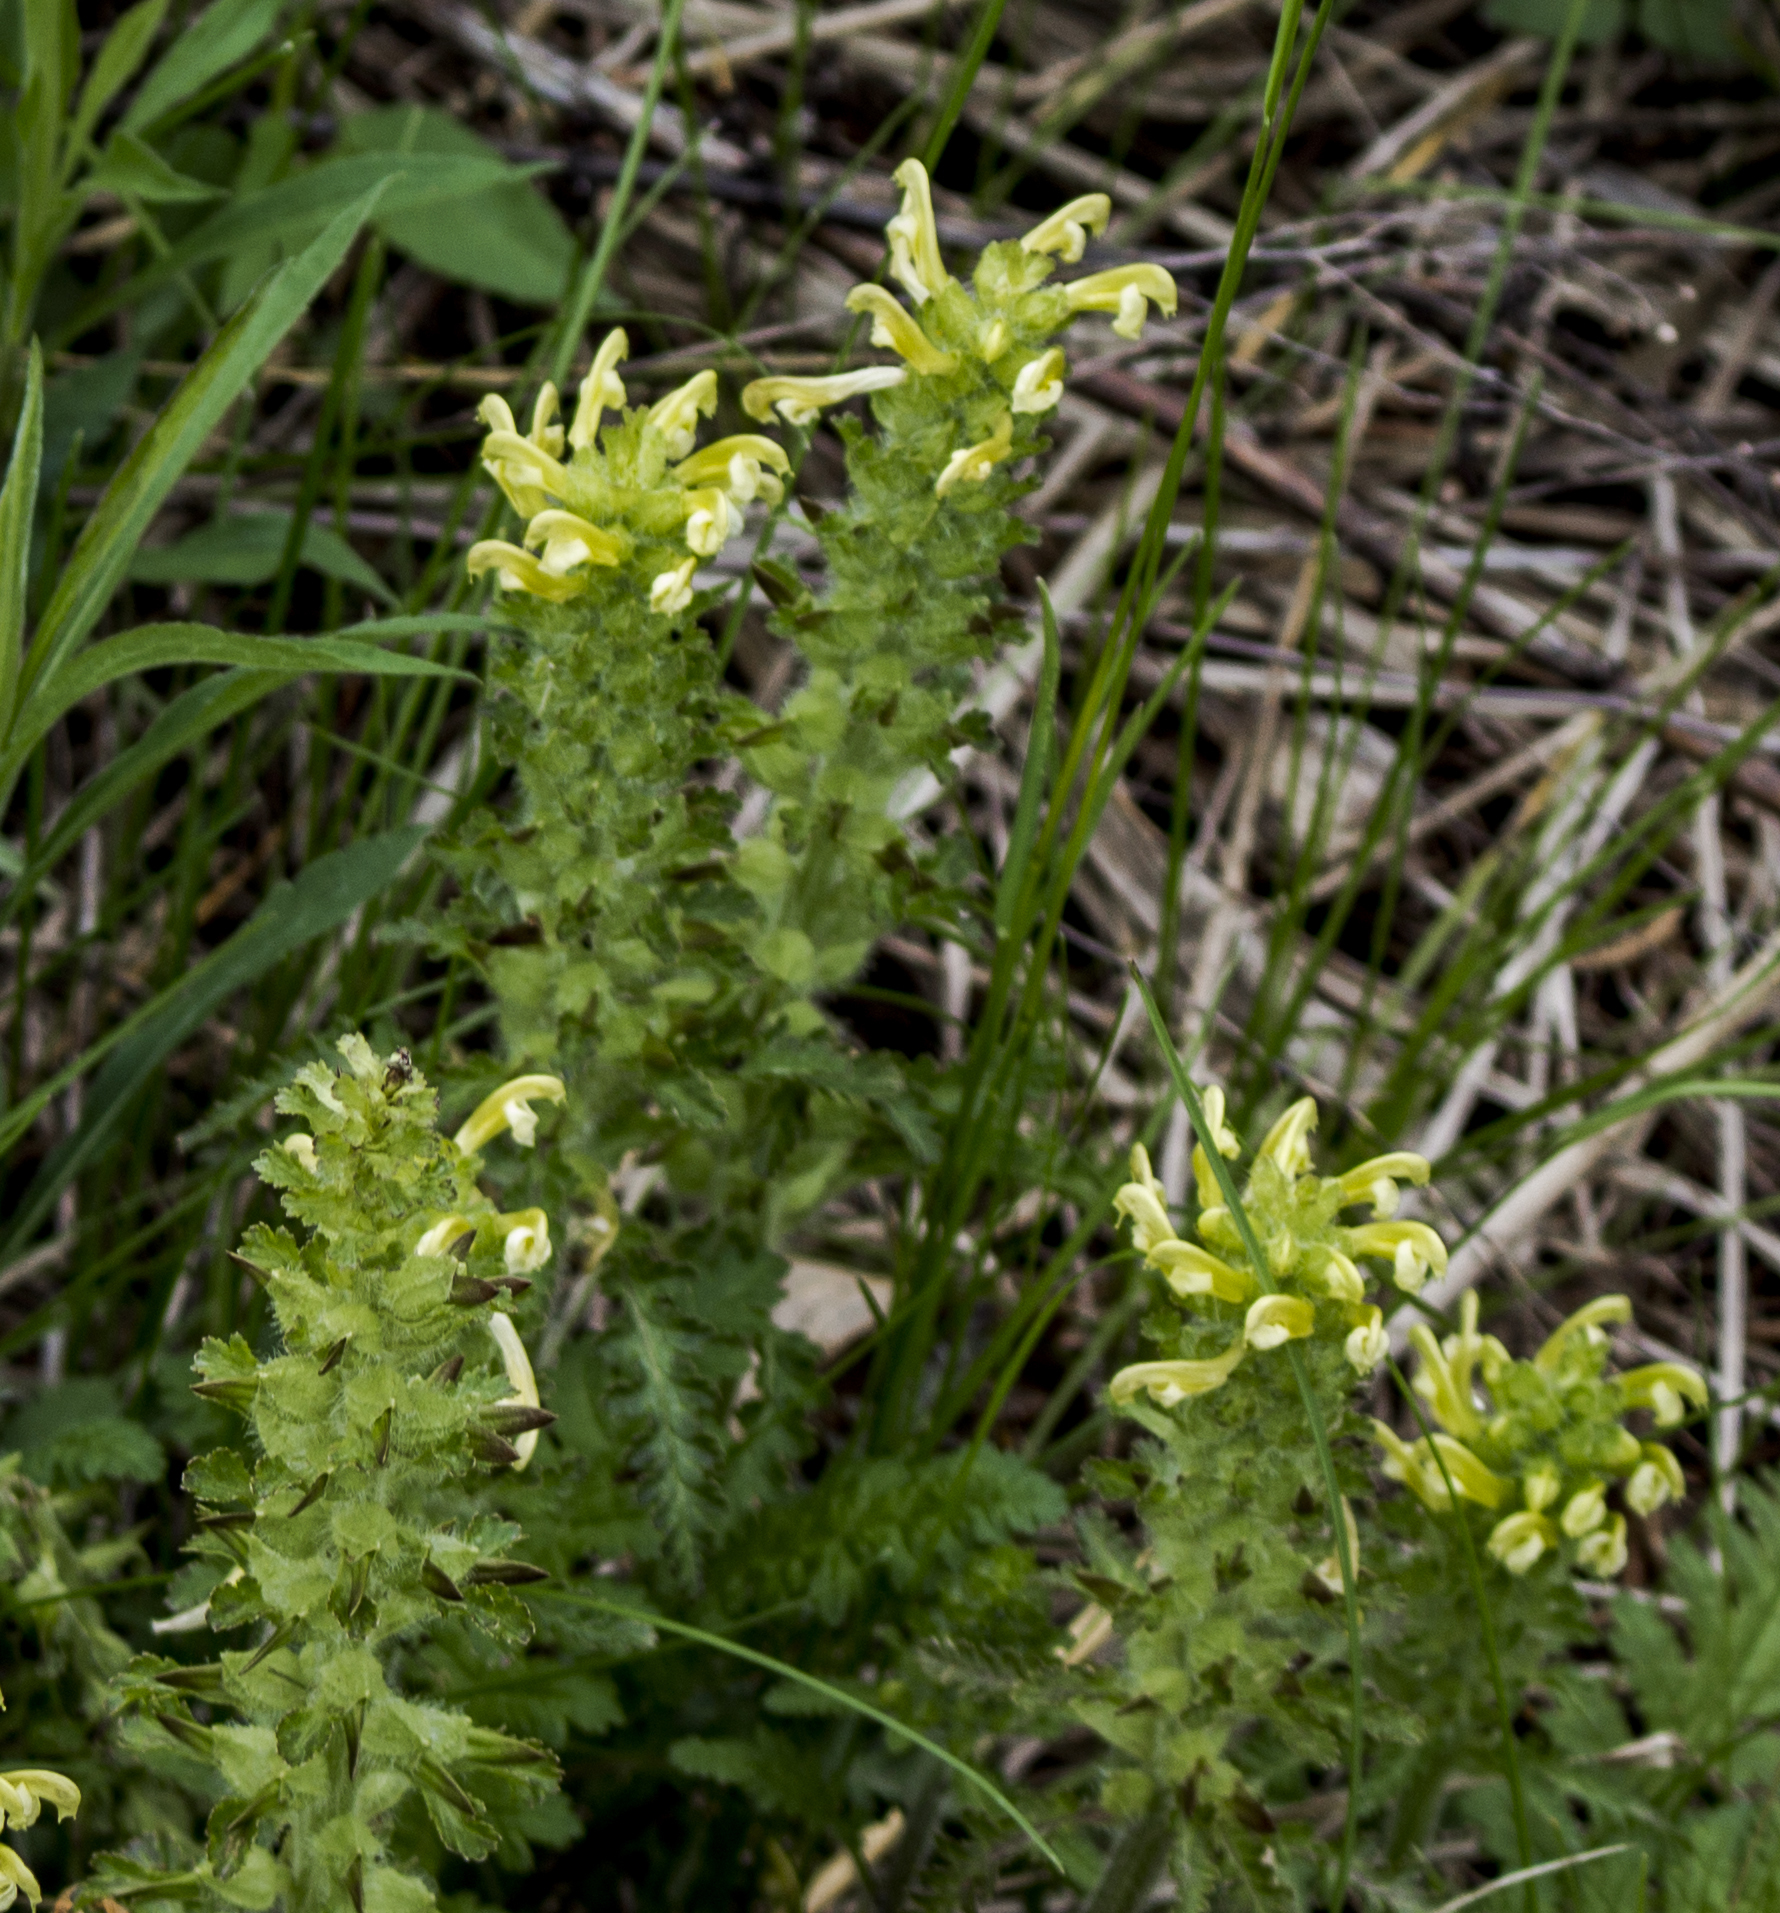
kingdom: Plantae
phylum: Tracheophyta
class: Magnoliopsida
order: Lamiales
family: Orobanchaceae
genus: Pedicularis
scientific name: Pedicularis canadensis
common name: Early lousewort
